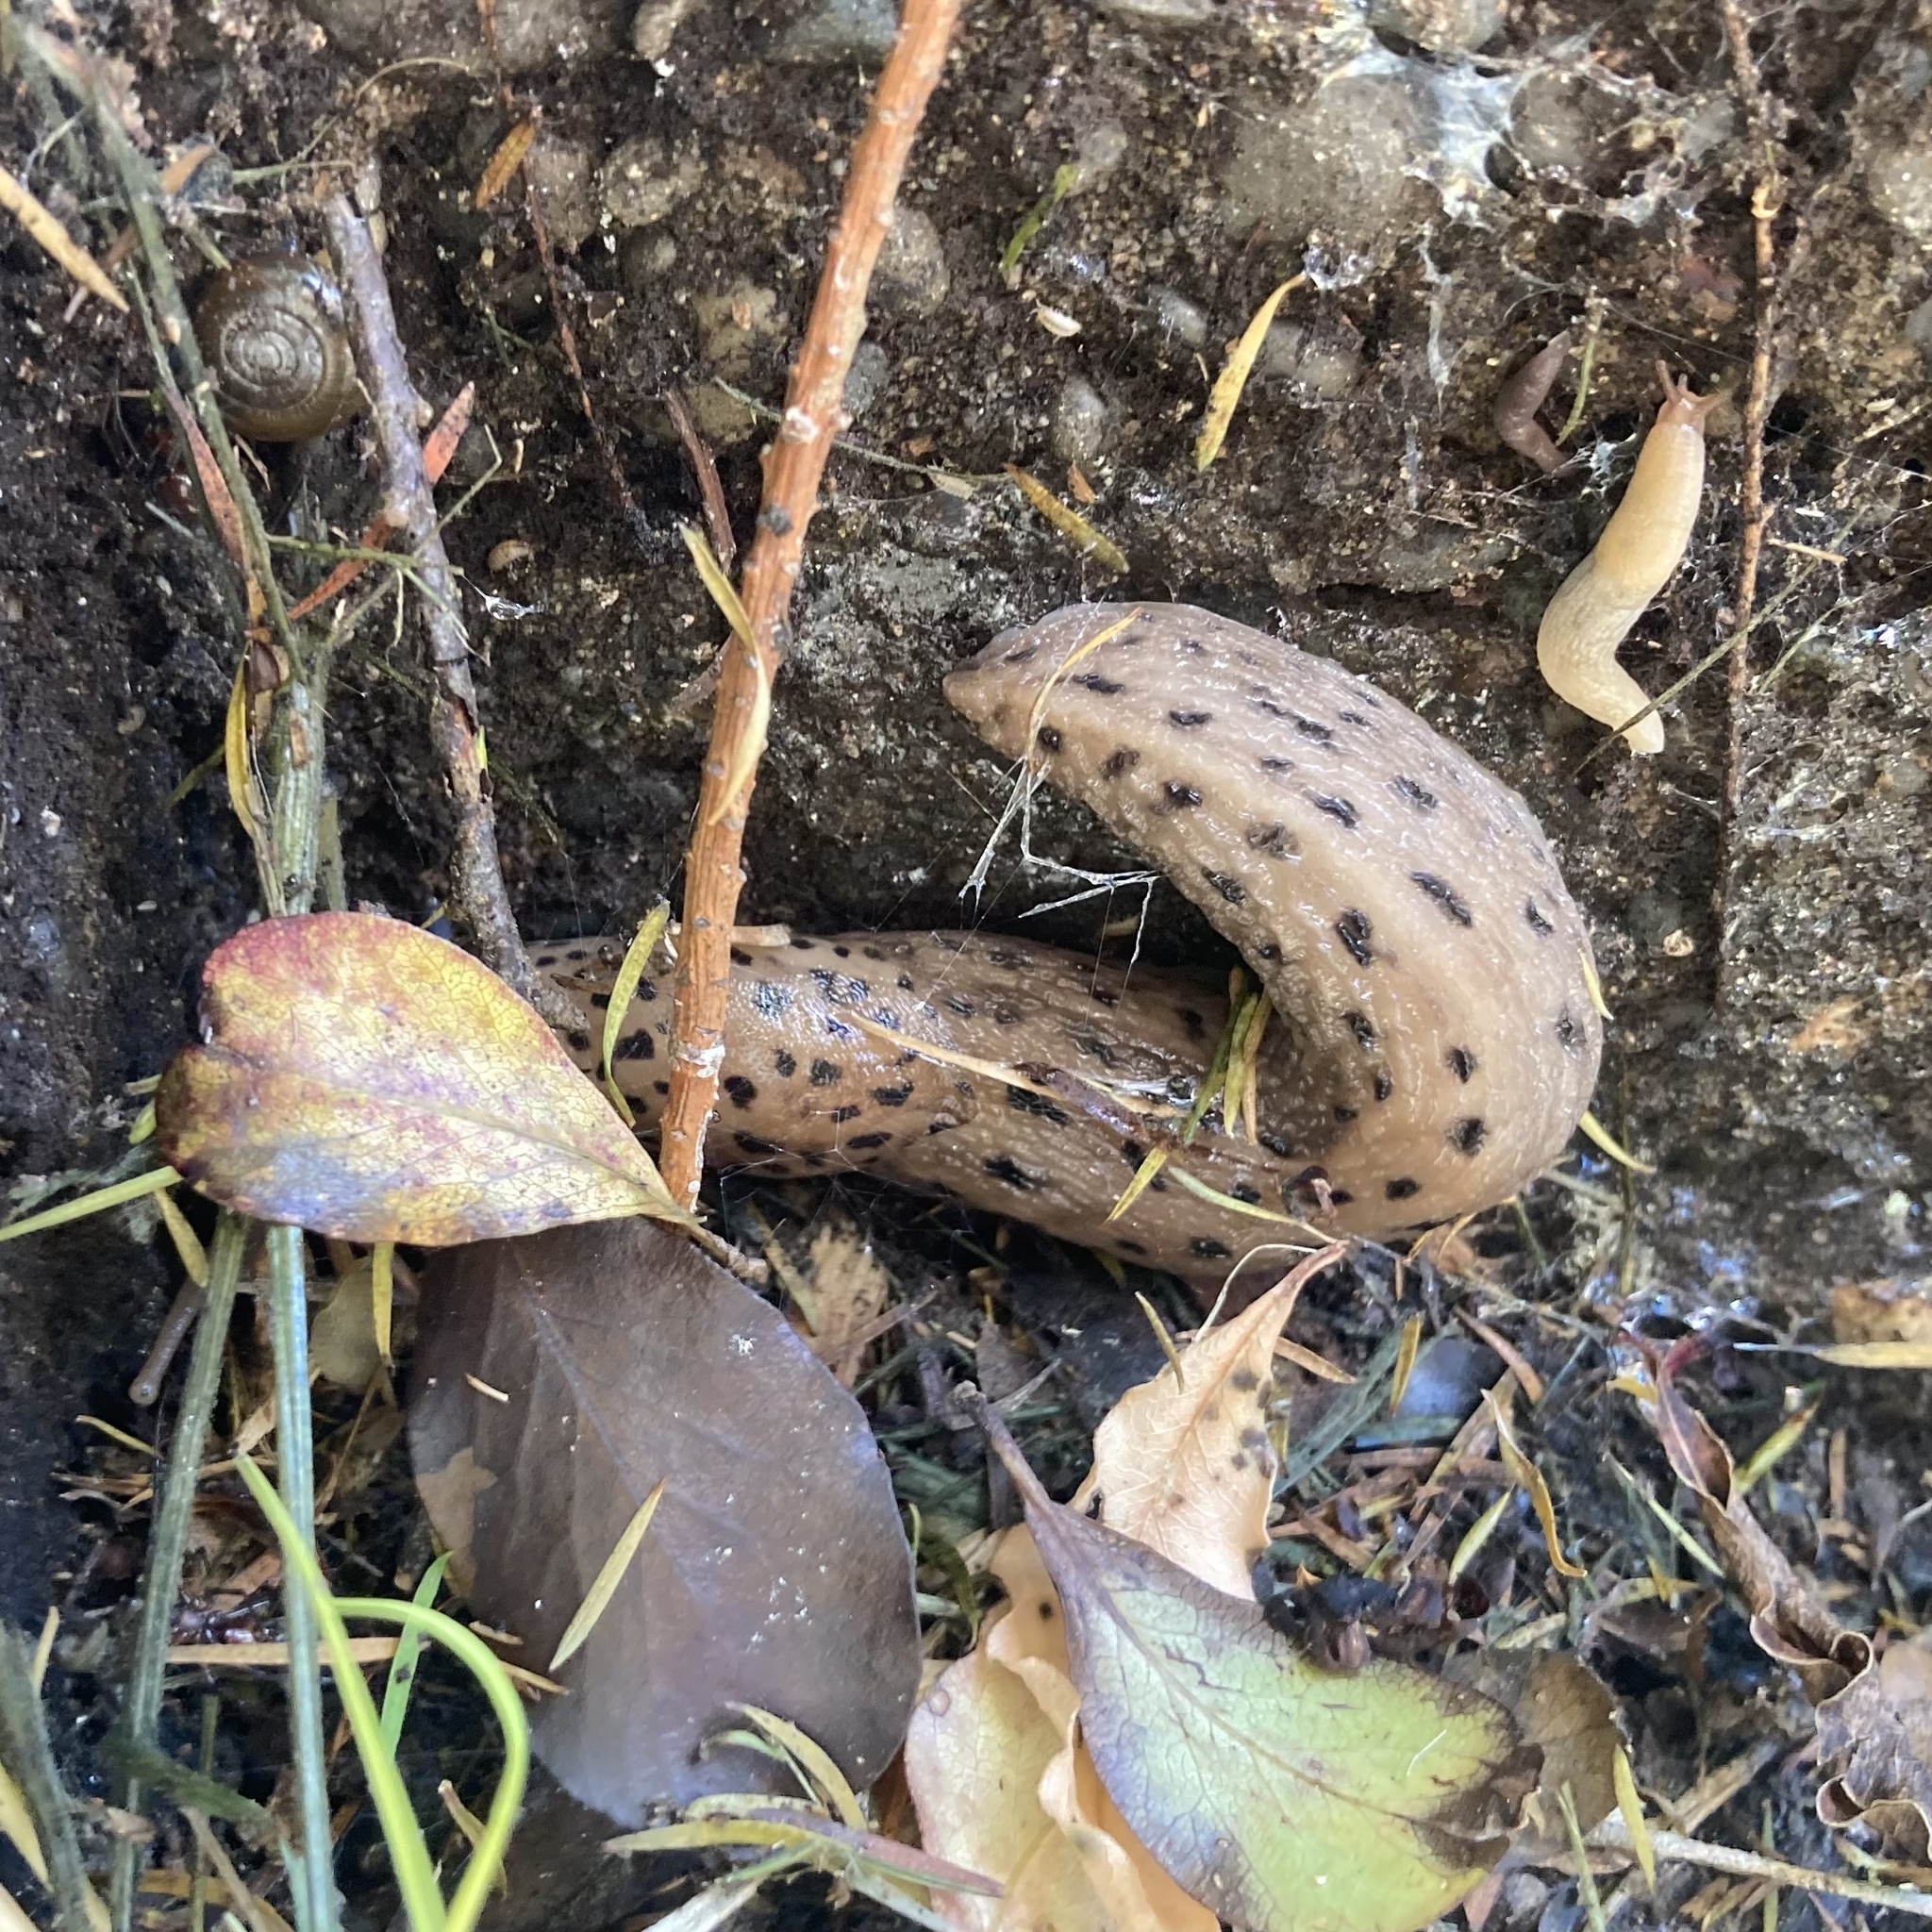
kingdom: Animalia
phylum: Mollusca
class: Gastropoda
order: Stylommatophora
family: Limacidae
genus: Limax
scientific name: Limax maximus
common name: Great grey slug
